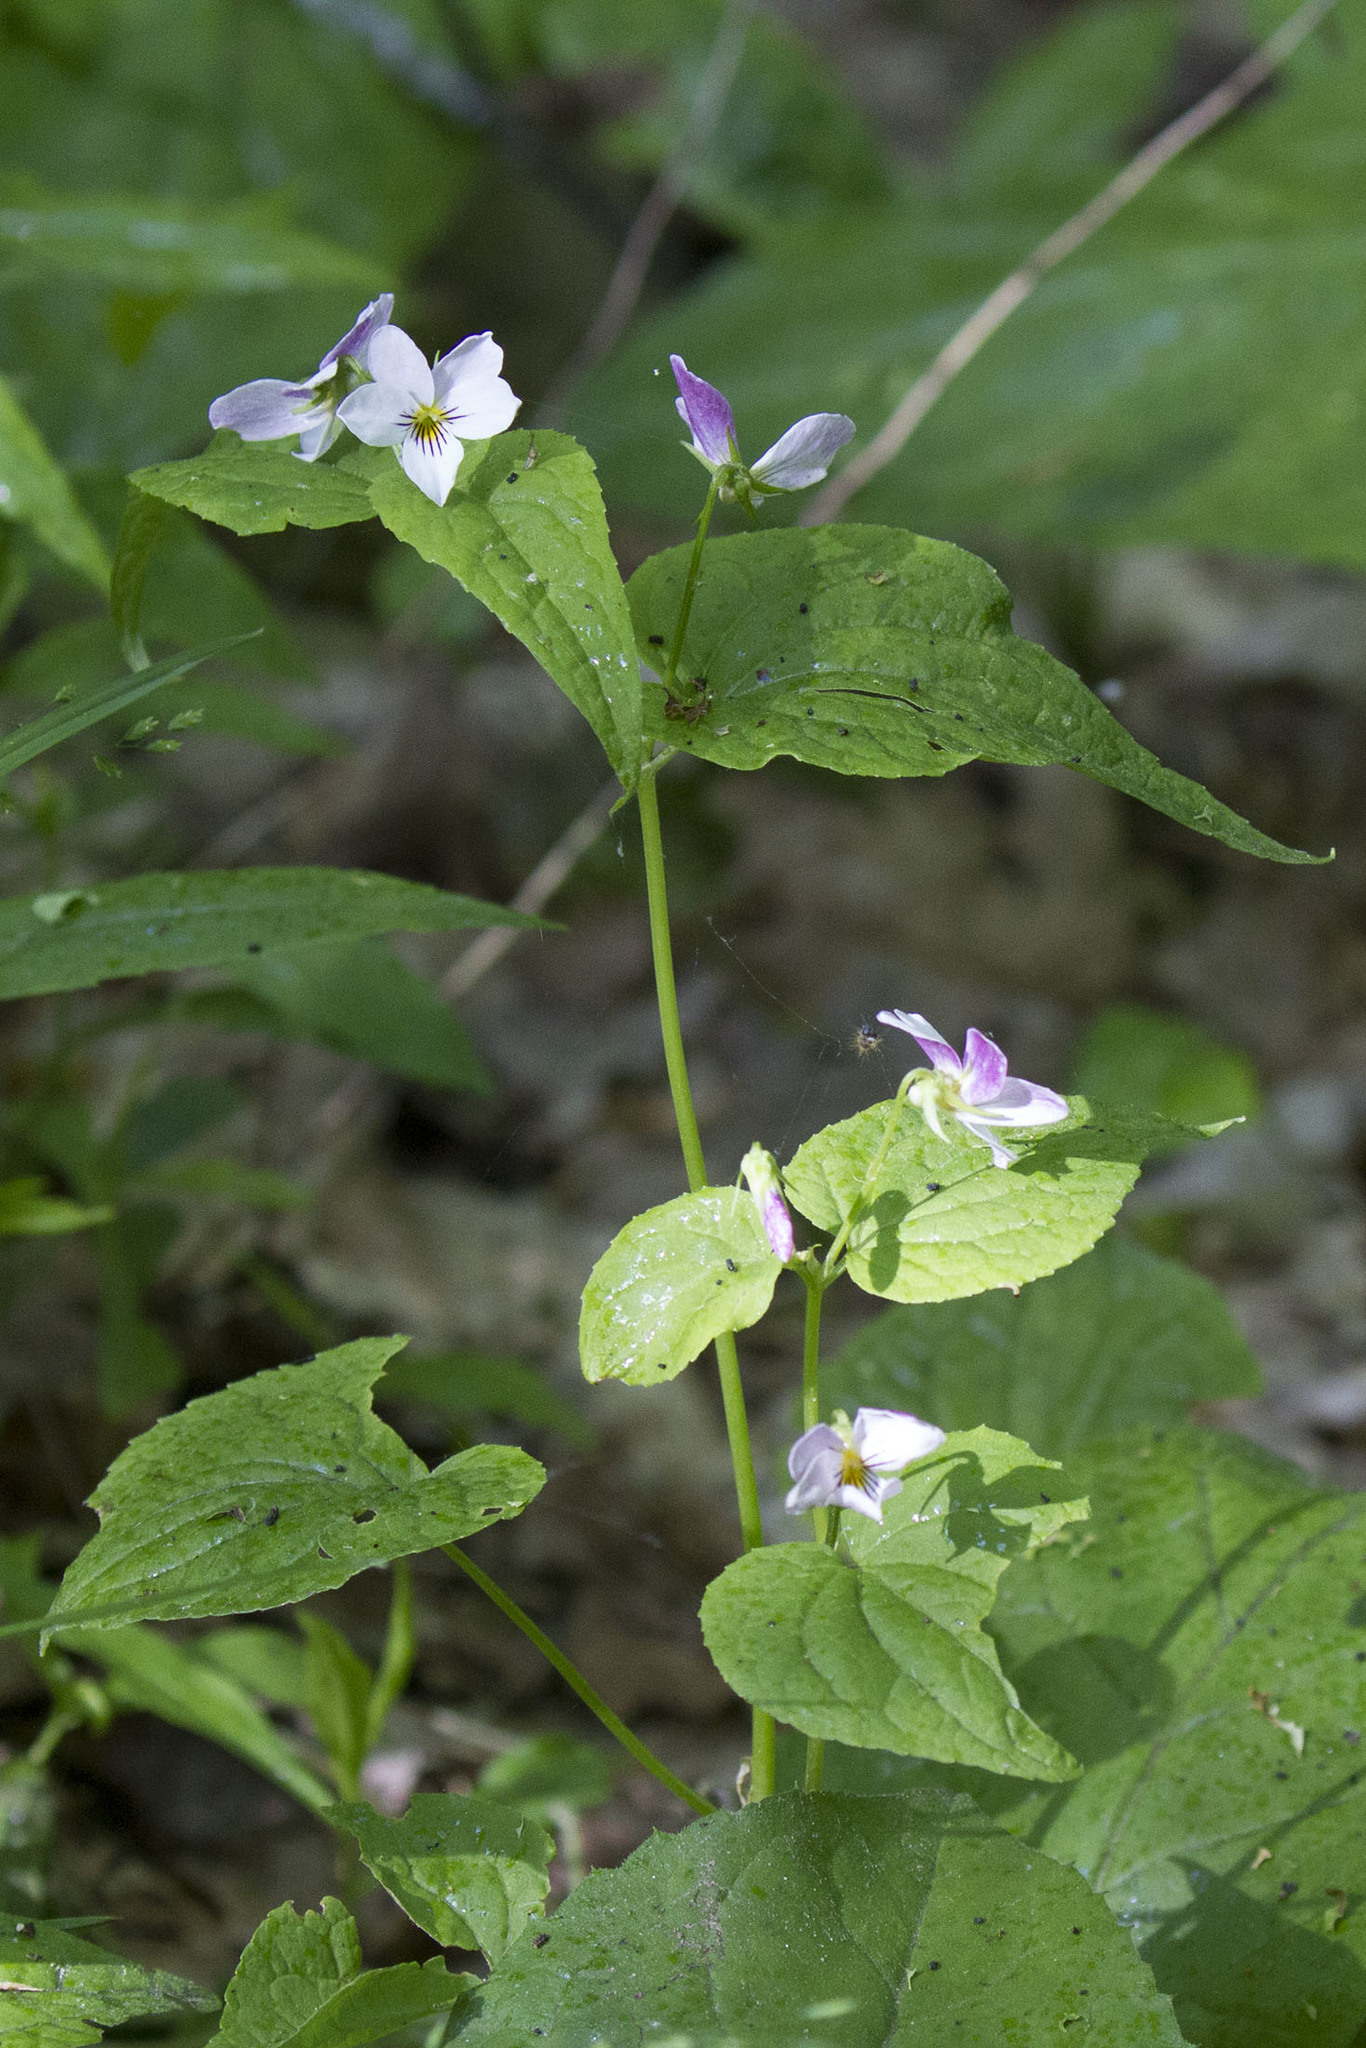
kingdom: Plantae
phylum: Tracheophyta
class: Magnoliopsida
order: Malpighiales
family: Violaceae
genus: Viola
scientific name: Viola canadensis
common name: Canada violet
